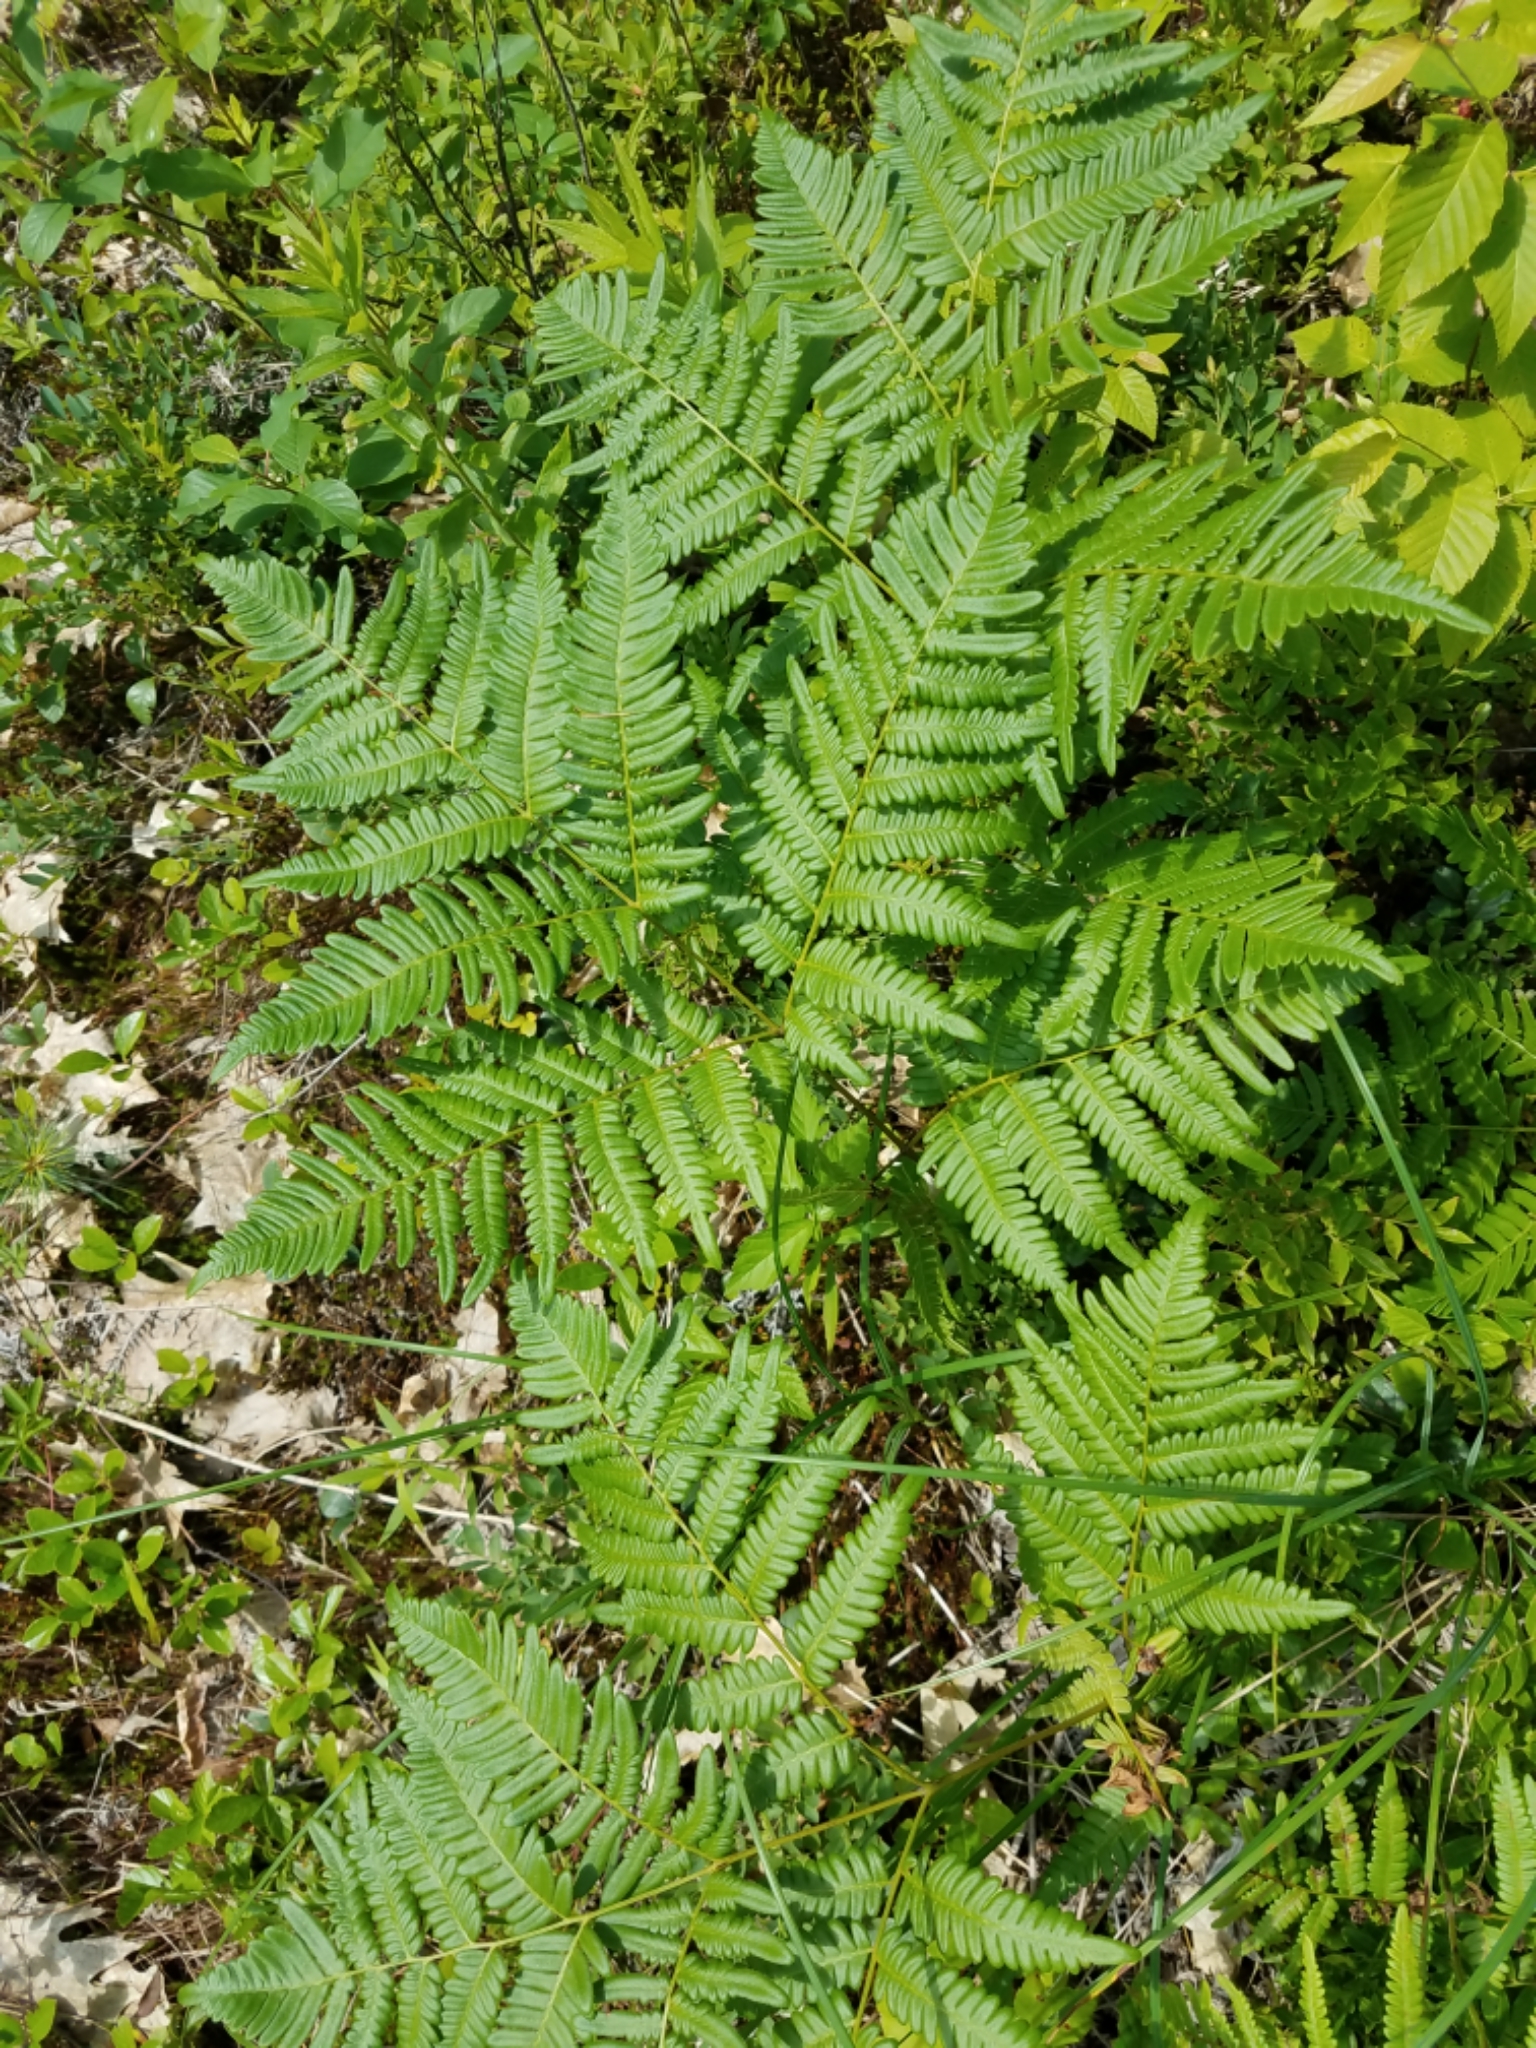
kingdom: Plantae
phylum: Tracheophyta
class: Polypodiopsida
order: Polypodiales
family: Dennstaedtiaceae
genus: Pteridium
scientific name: Pteridium aquilinum
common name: Bracken
